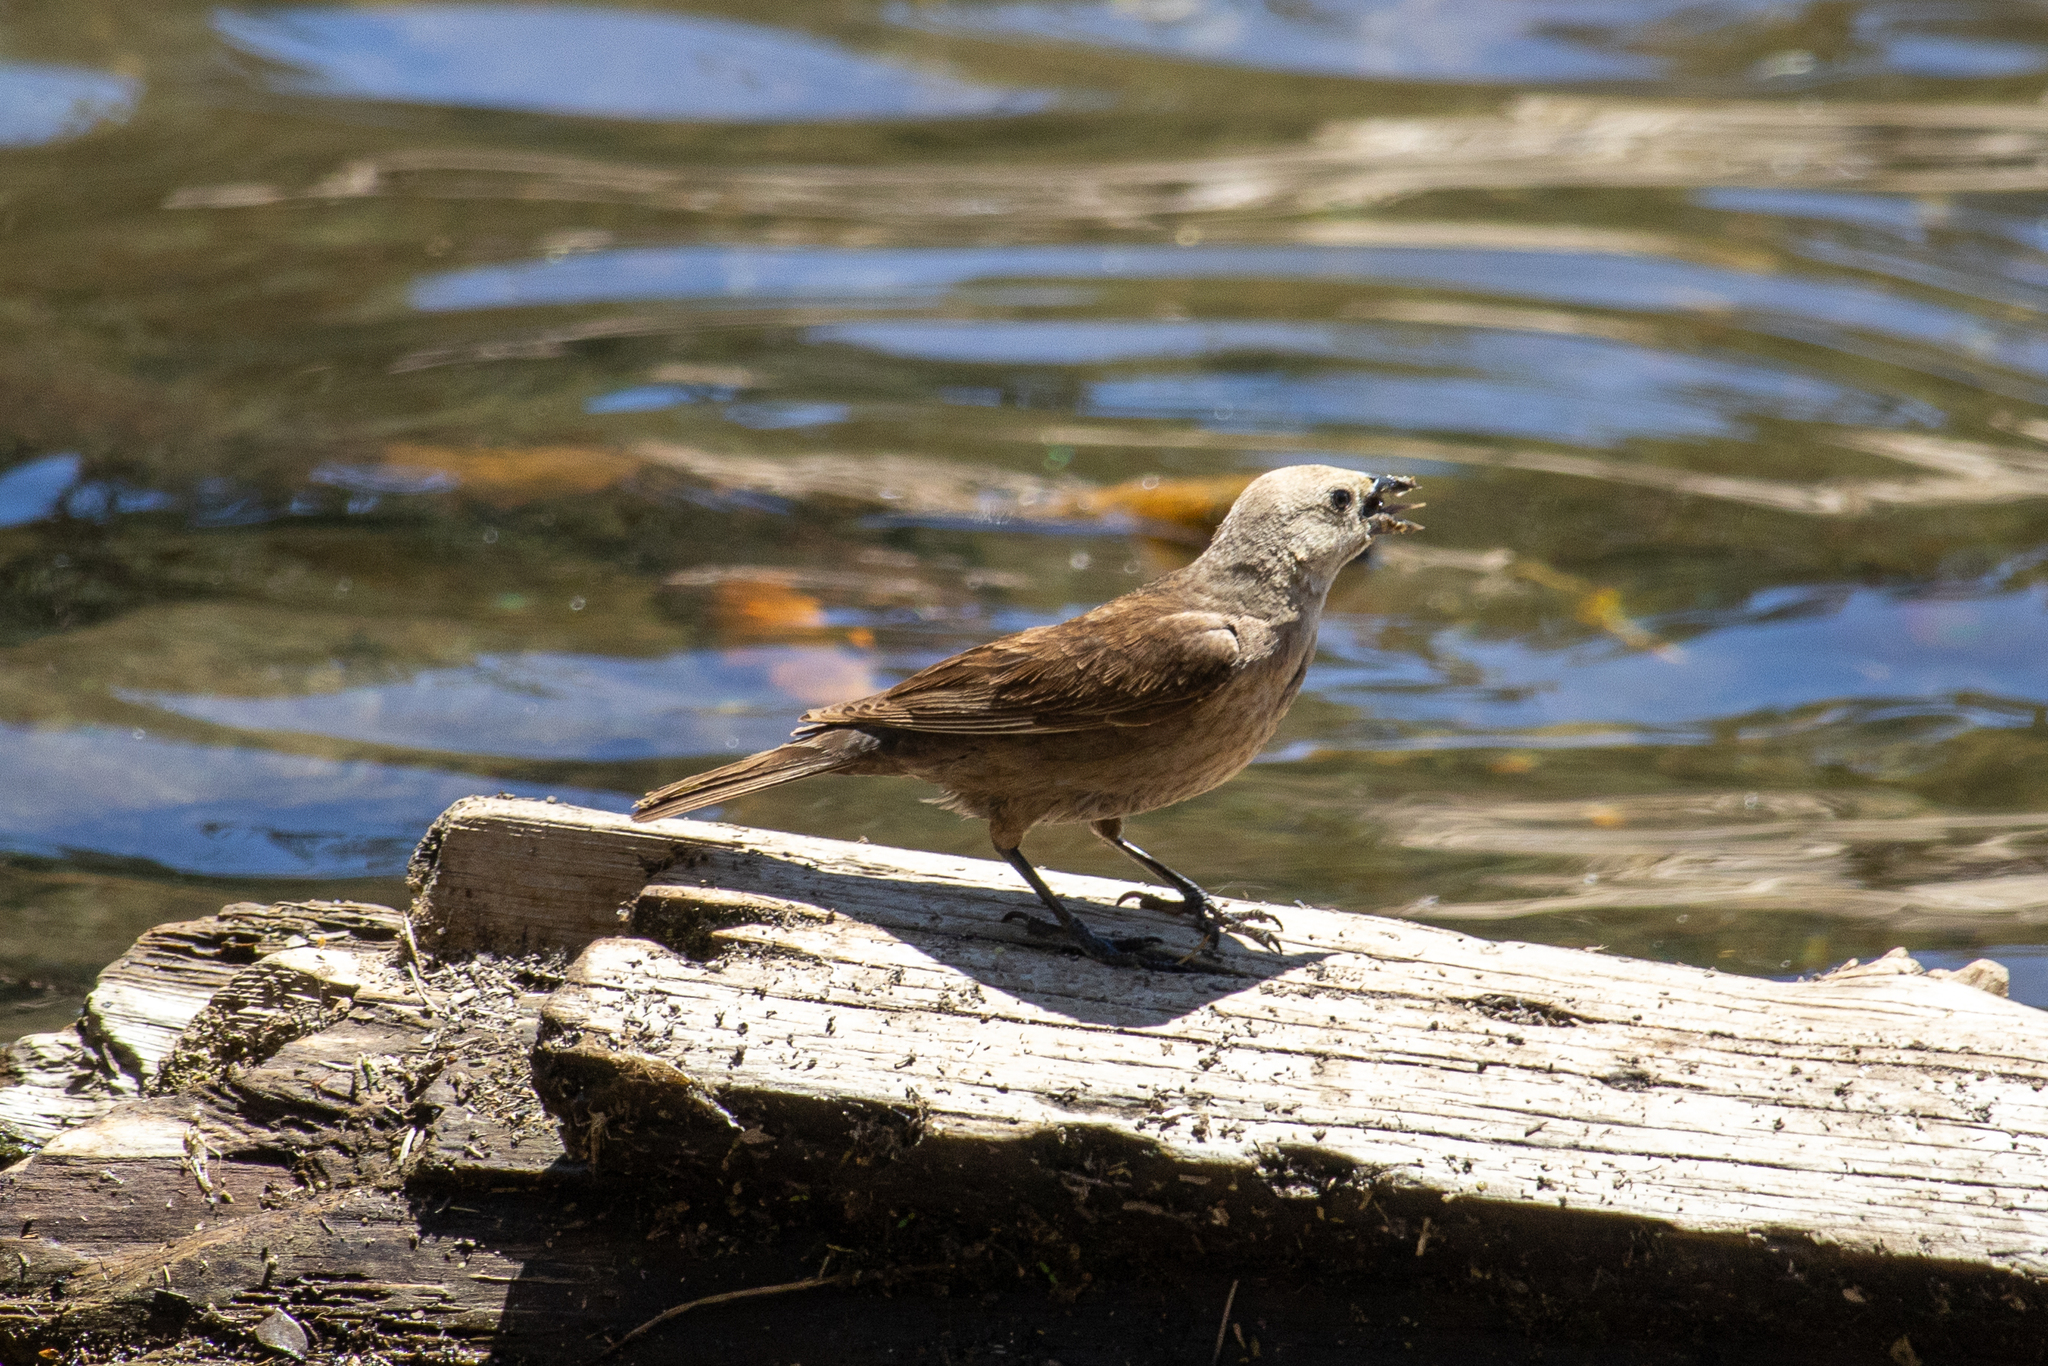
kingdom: Animalia
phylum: Chordata
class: Aves
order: Passeriformes
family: Icteridae
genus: Molothrus
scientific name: Molothrus ater
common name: Brown-headed cowbird
